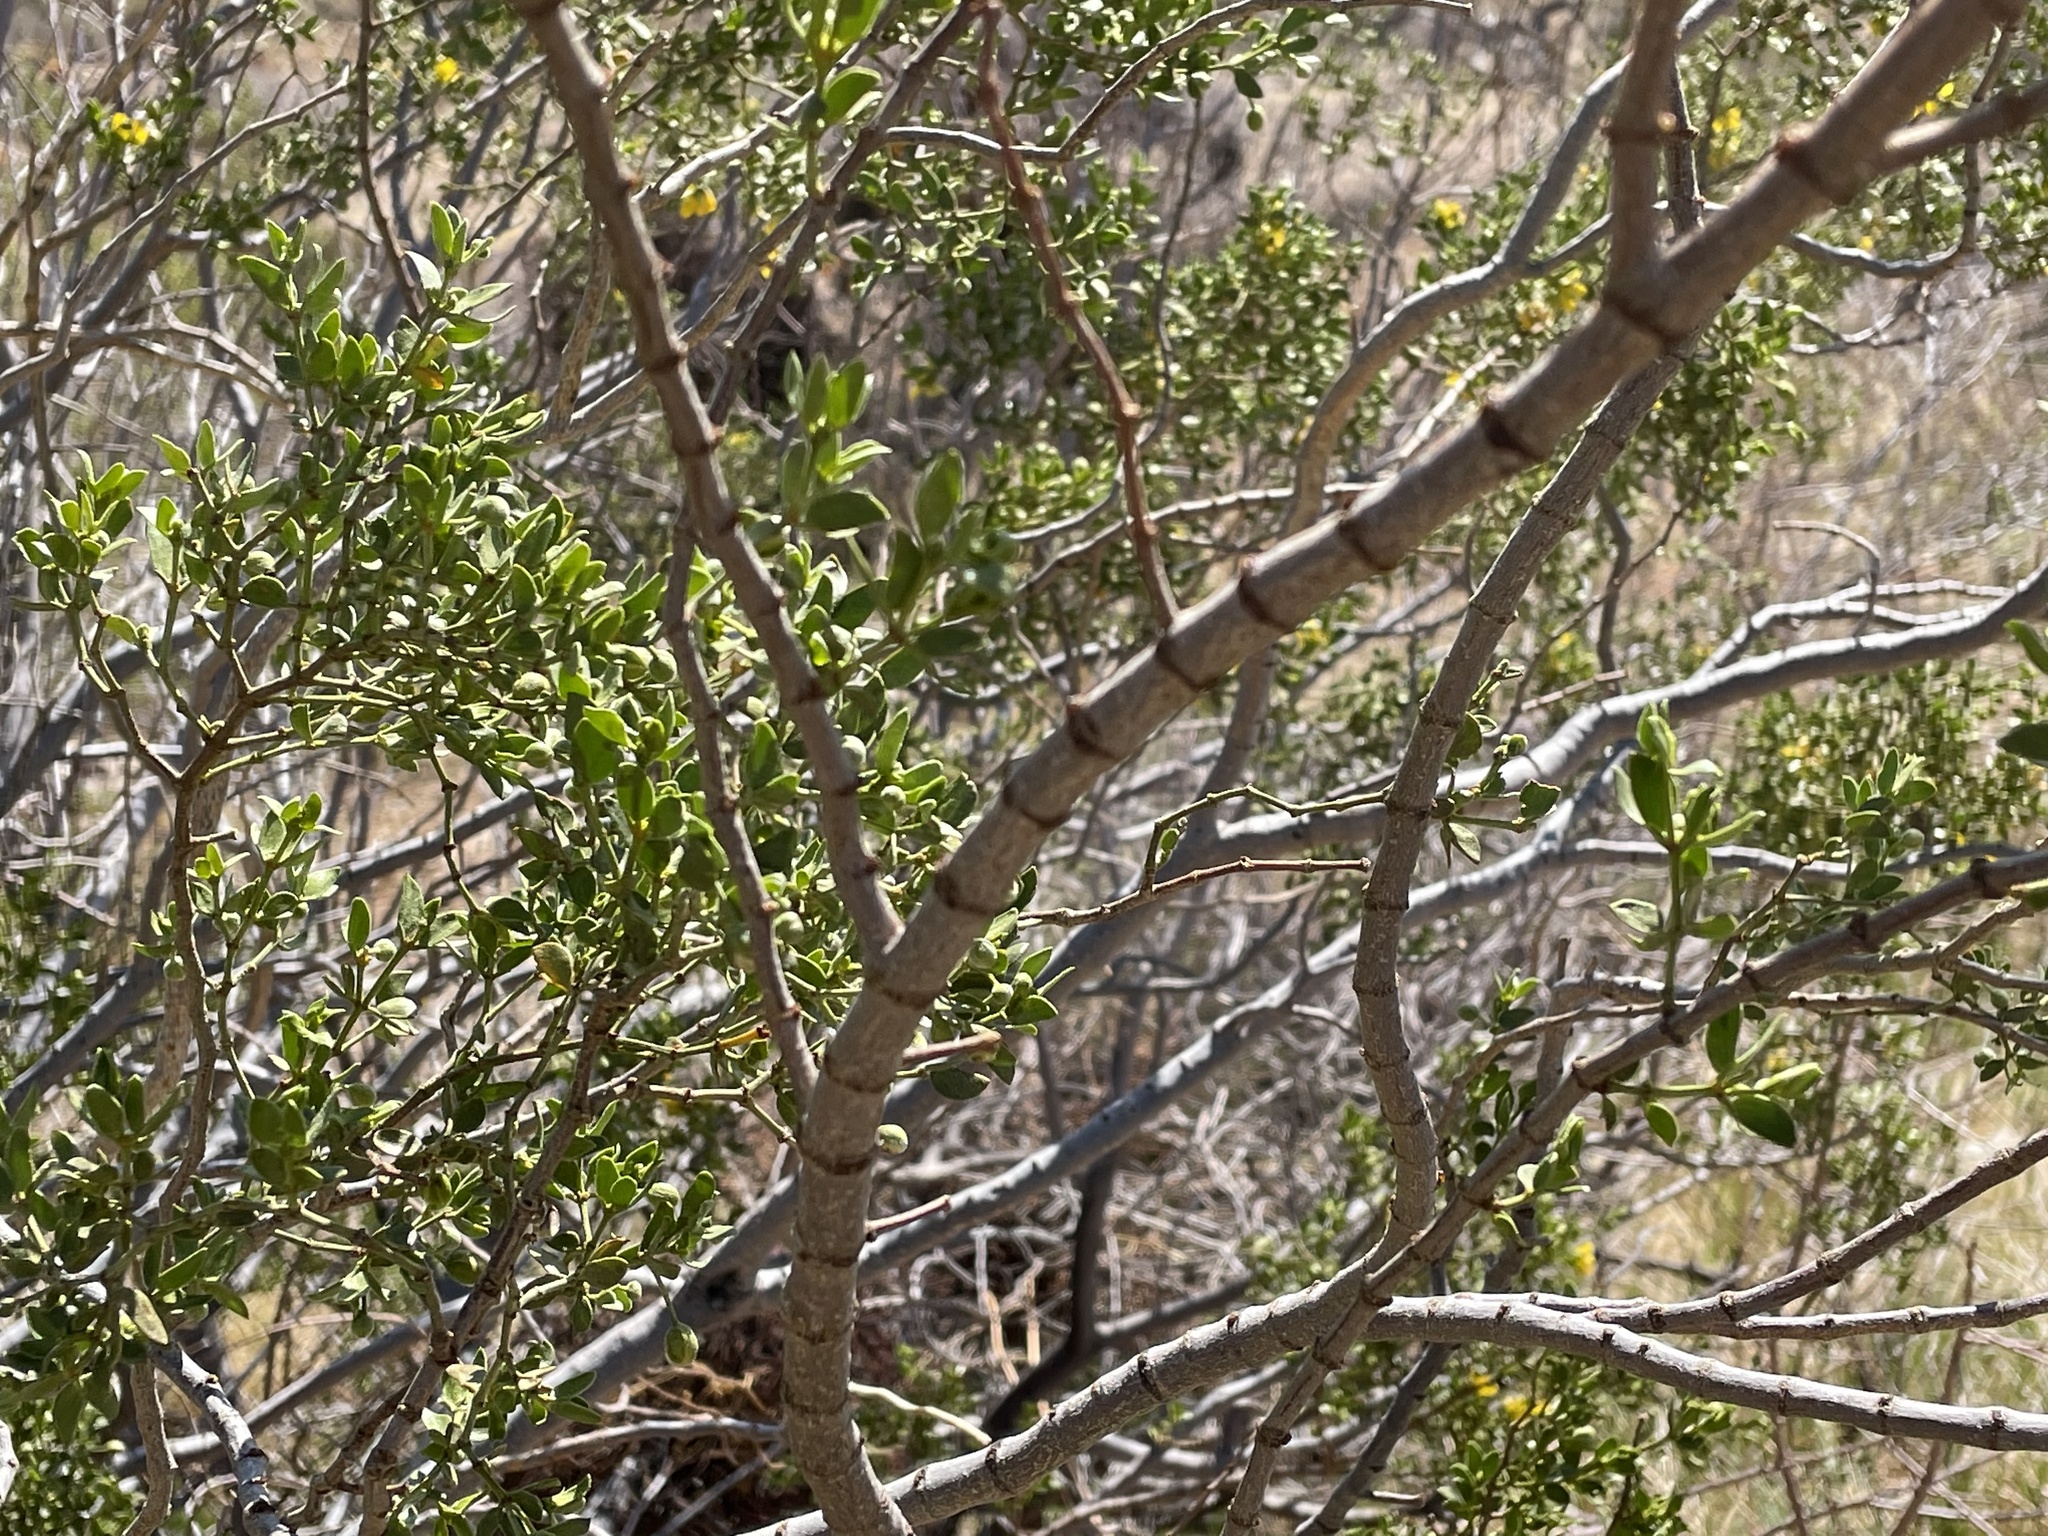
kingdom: Plantae
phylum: Tracheophyta
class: Magnoliopsida
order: Zygophyllales
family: Zygophyllaceae
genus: Larrea
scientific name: Larrea tridentata
